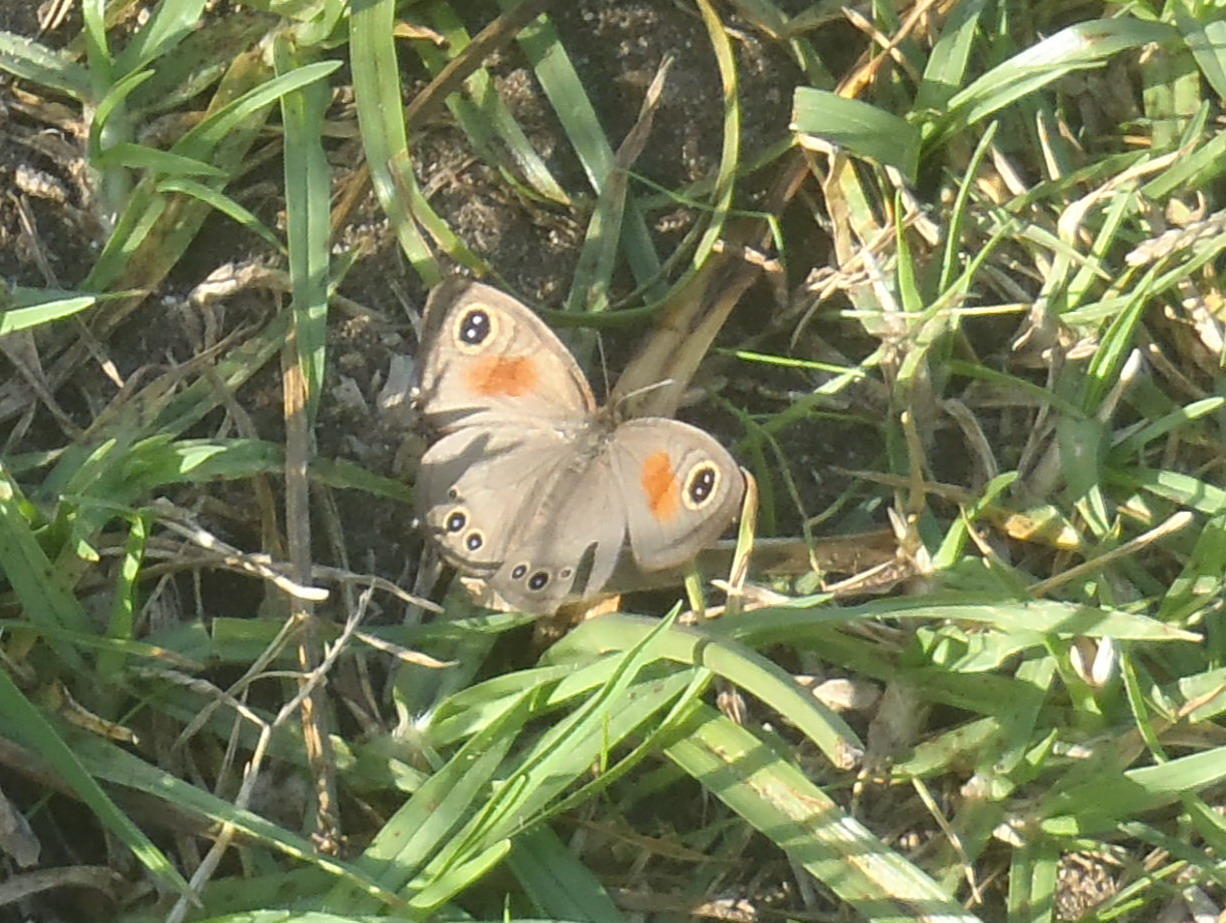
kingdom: Animalia
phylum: Arthropoda
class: Insecta
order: Lepidoptera
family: Nymphalidae
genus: Cassionympha
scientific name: Cassionympha cassius
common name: Rainforest brown
